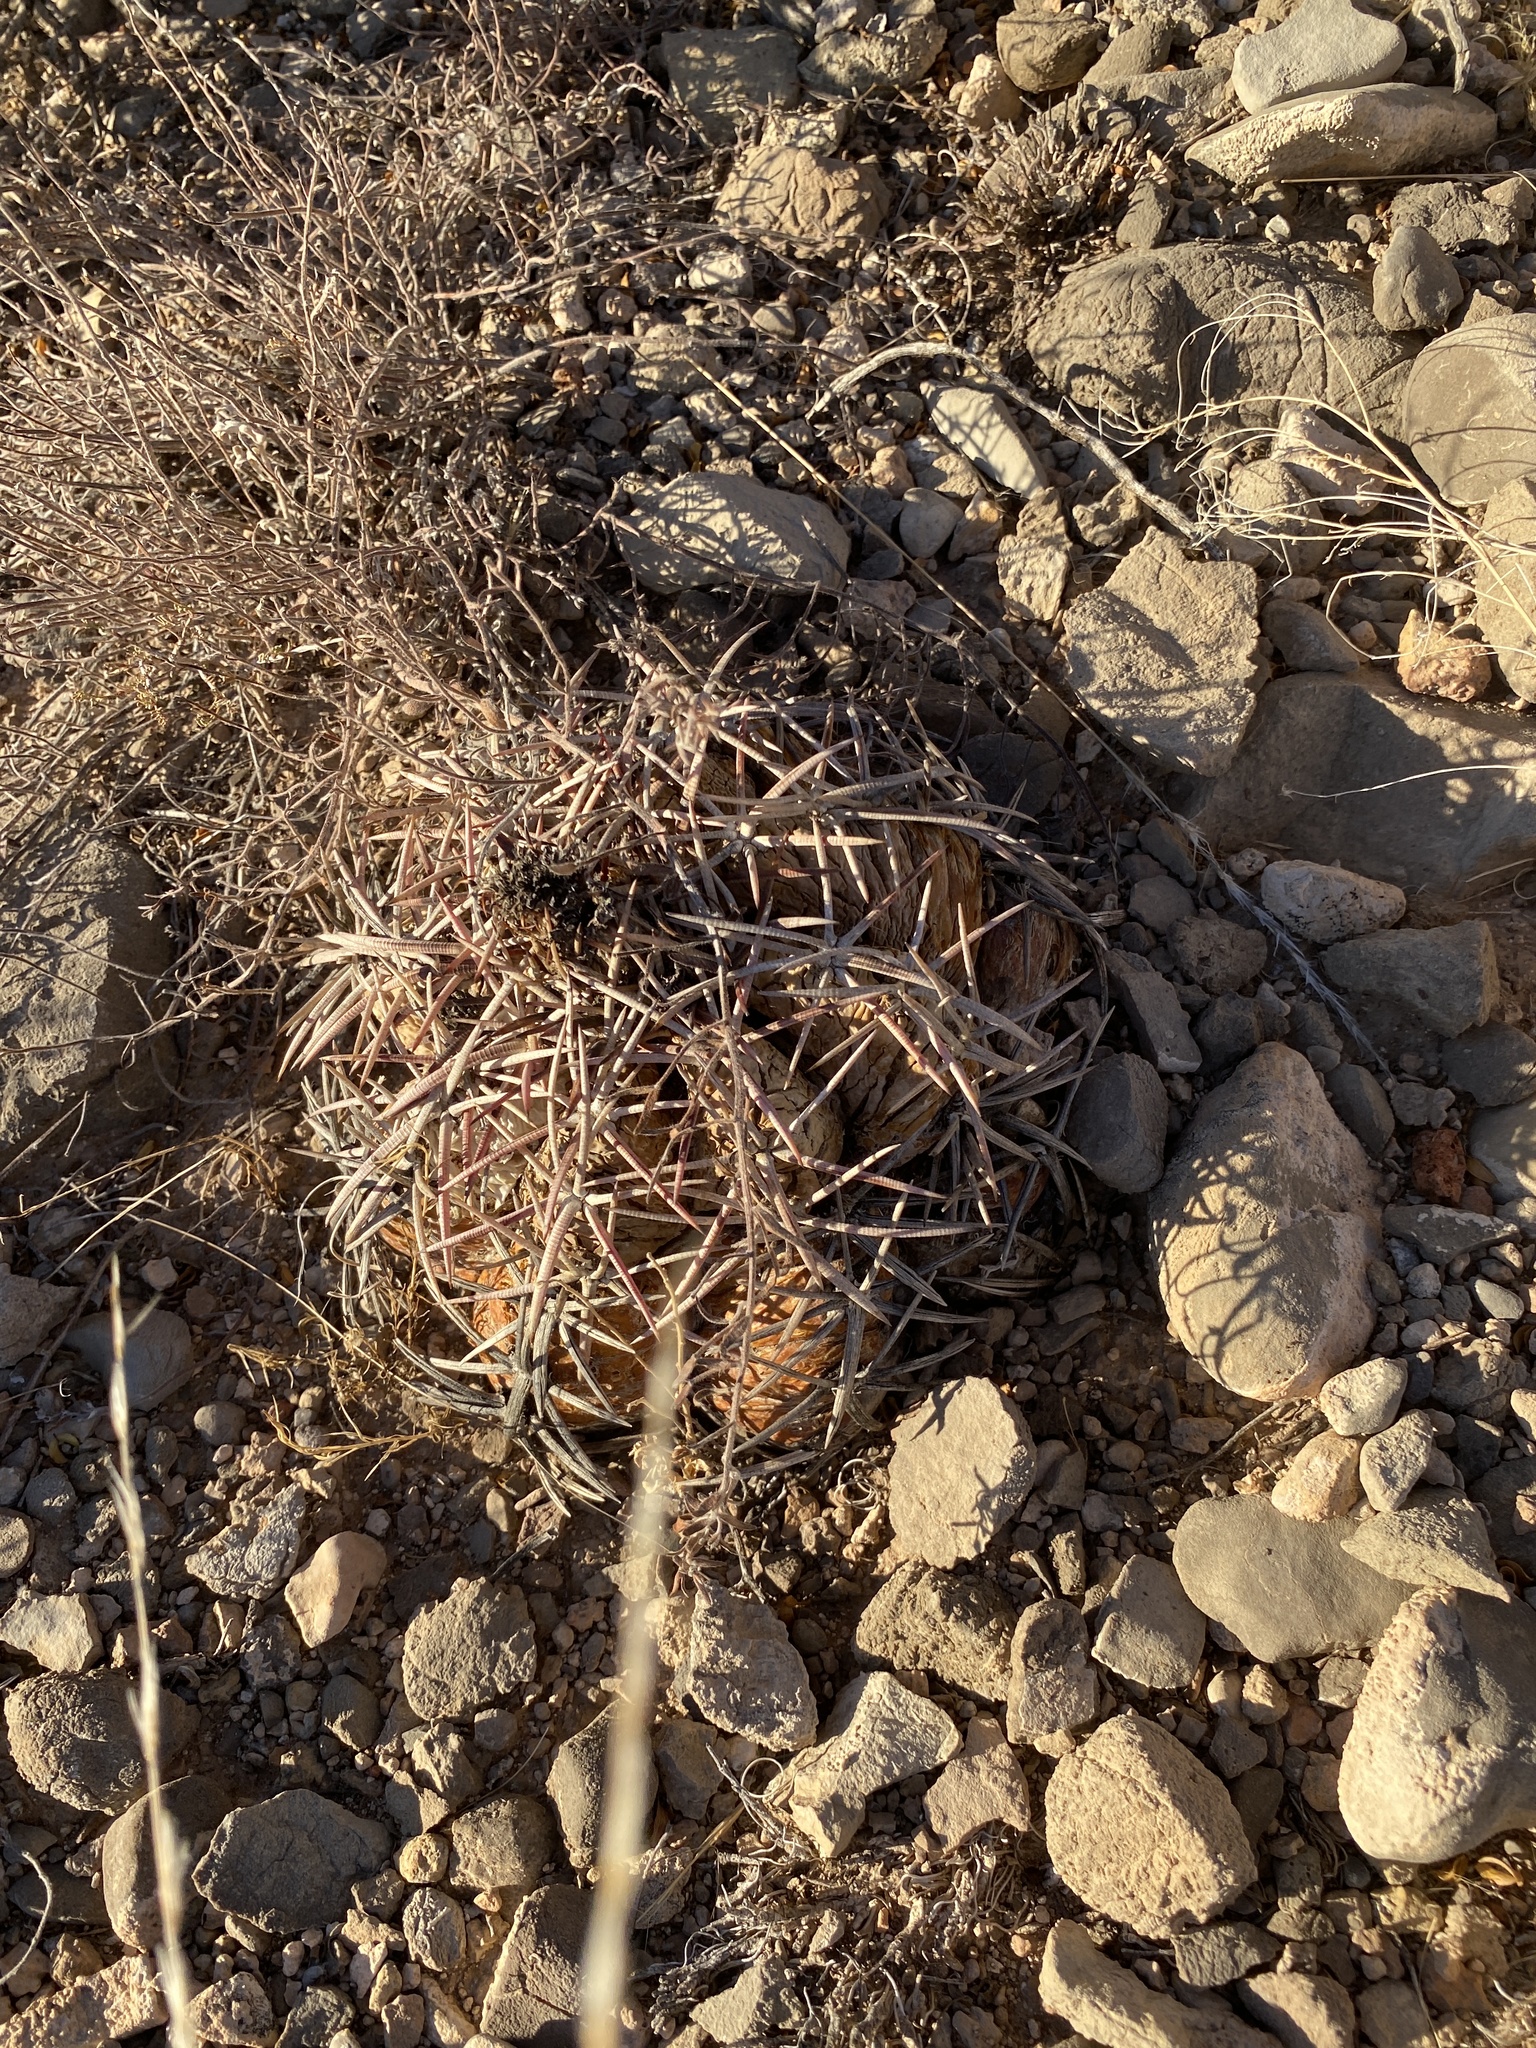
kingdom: Plantae
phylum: Tracheophyta
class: Magnoliopsida
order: Caryophyllales
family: Cactaceae
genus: Echinocactus
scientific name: Echinocactus horizonthalonius
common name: Devilshead
